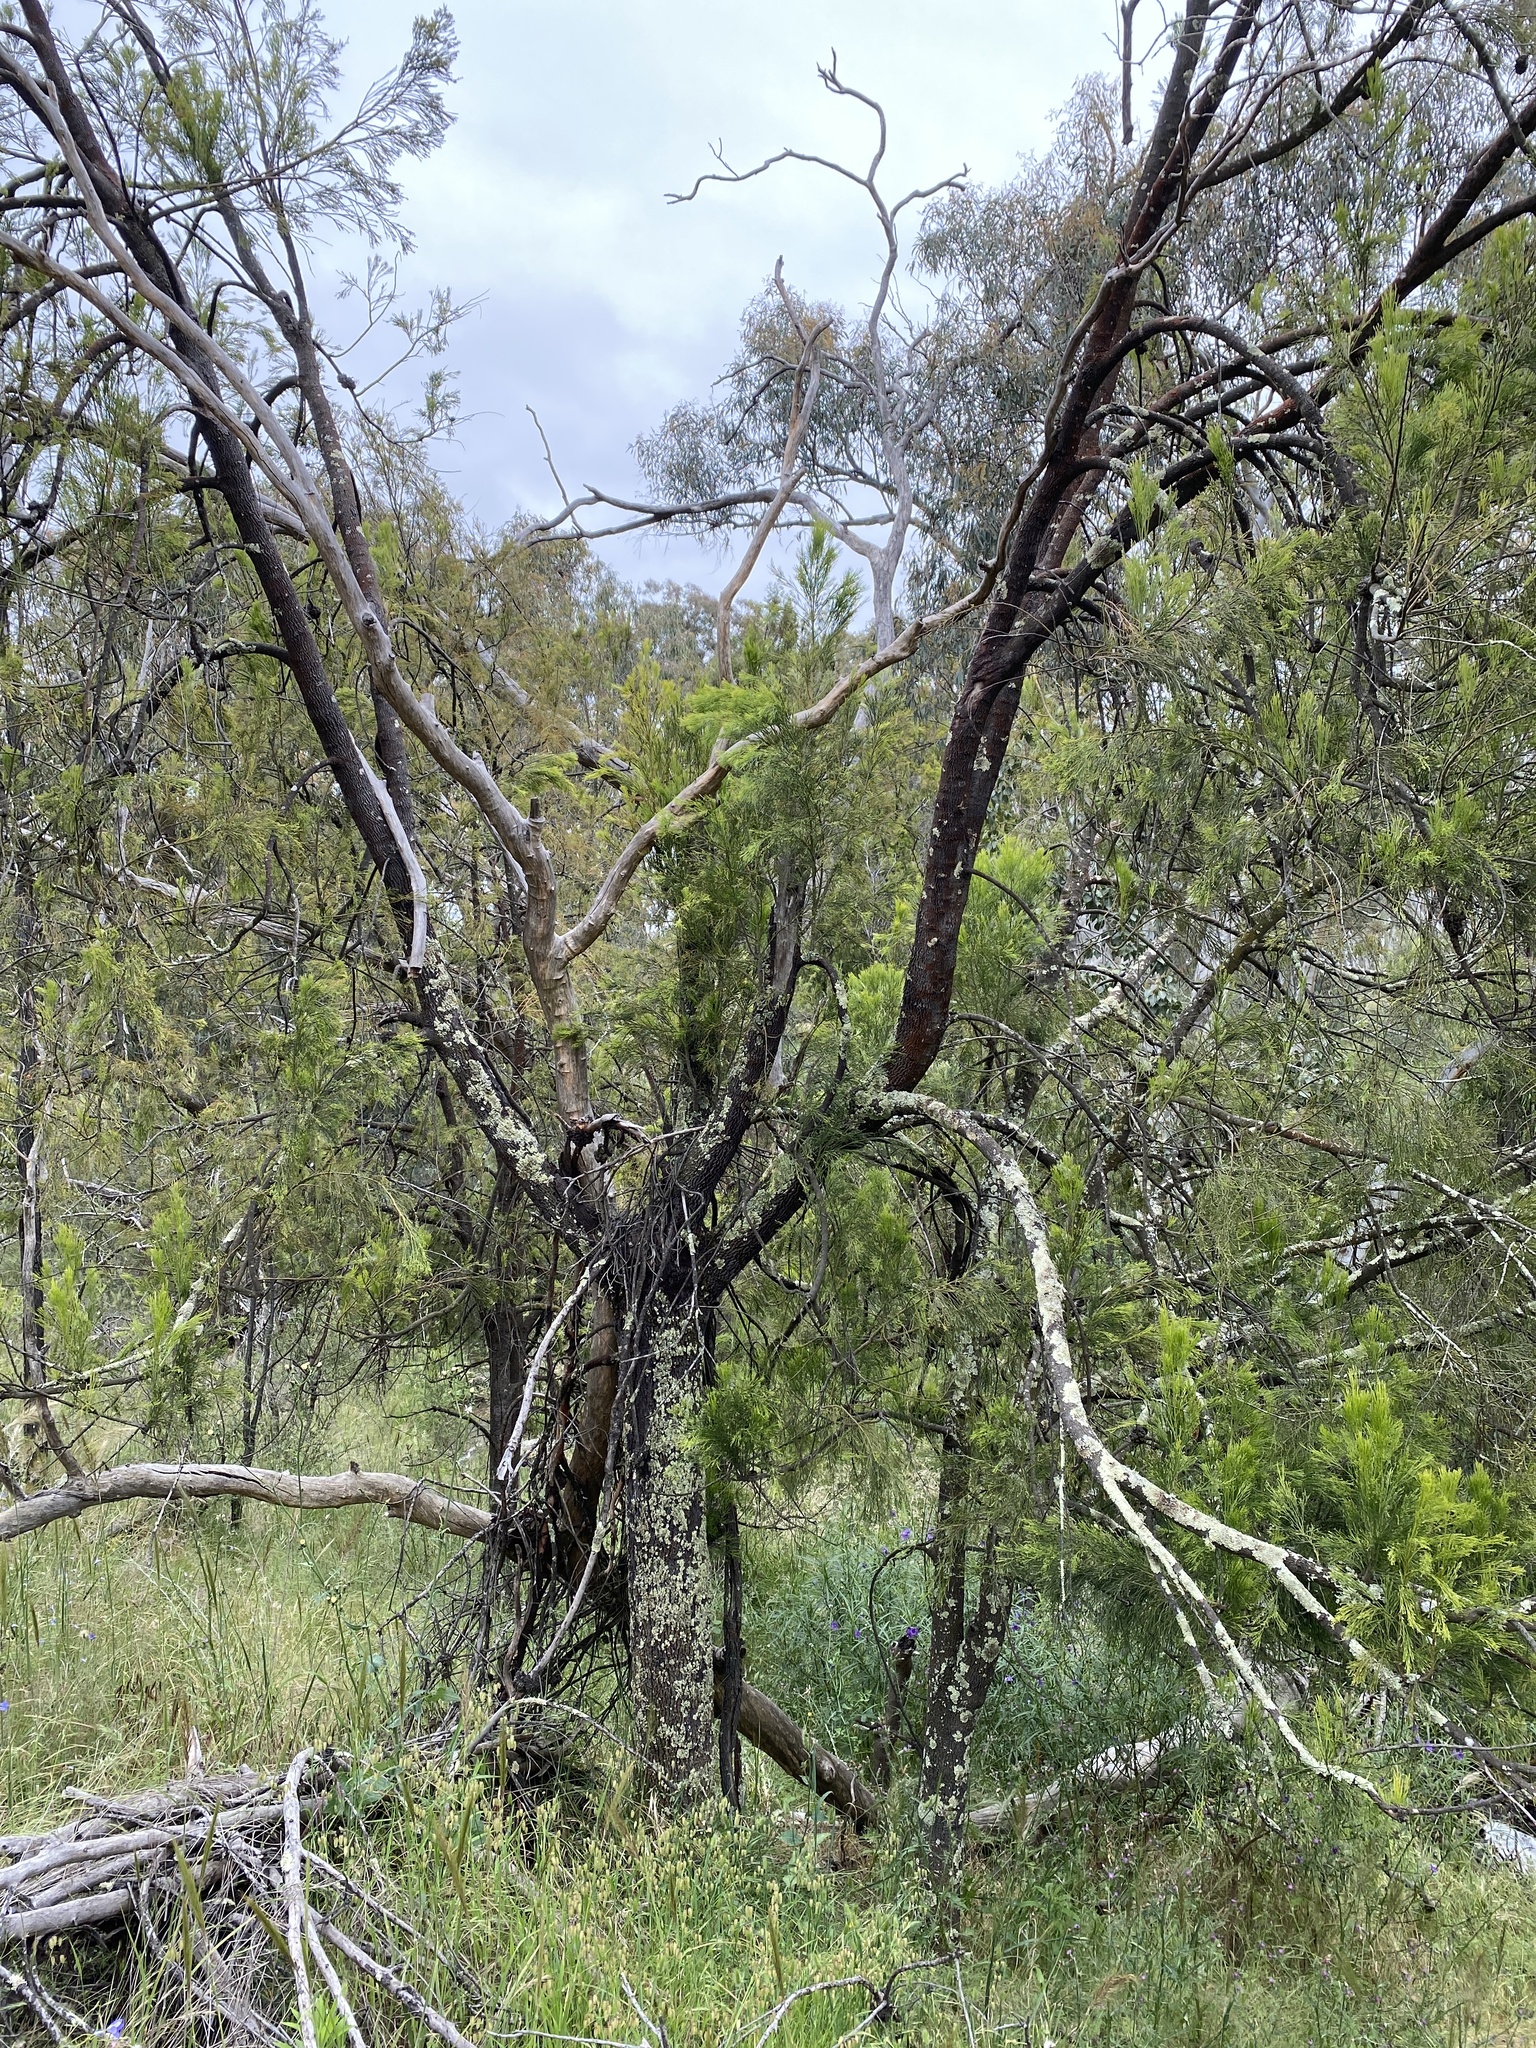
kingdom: Plantae
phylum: Tracheophyta
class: Magnoliopsida
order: Santalales
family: Santalaceae
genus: Exocarpos
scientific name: Exocarpos cupressiformis
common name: Cherry ballart
